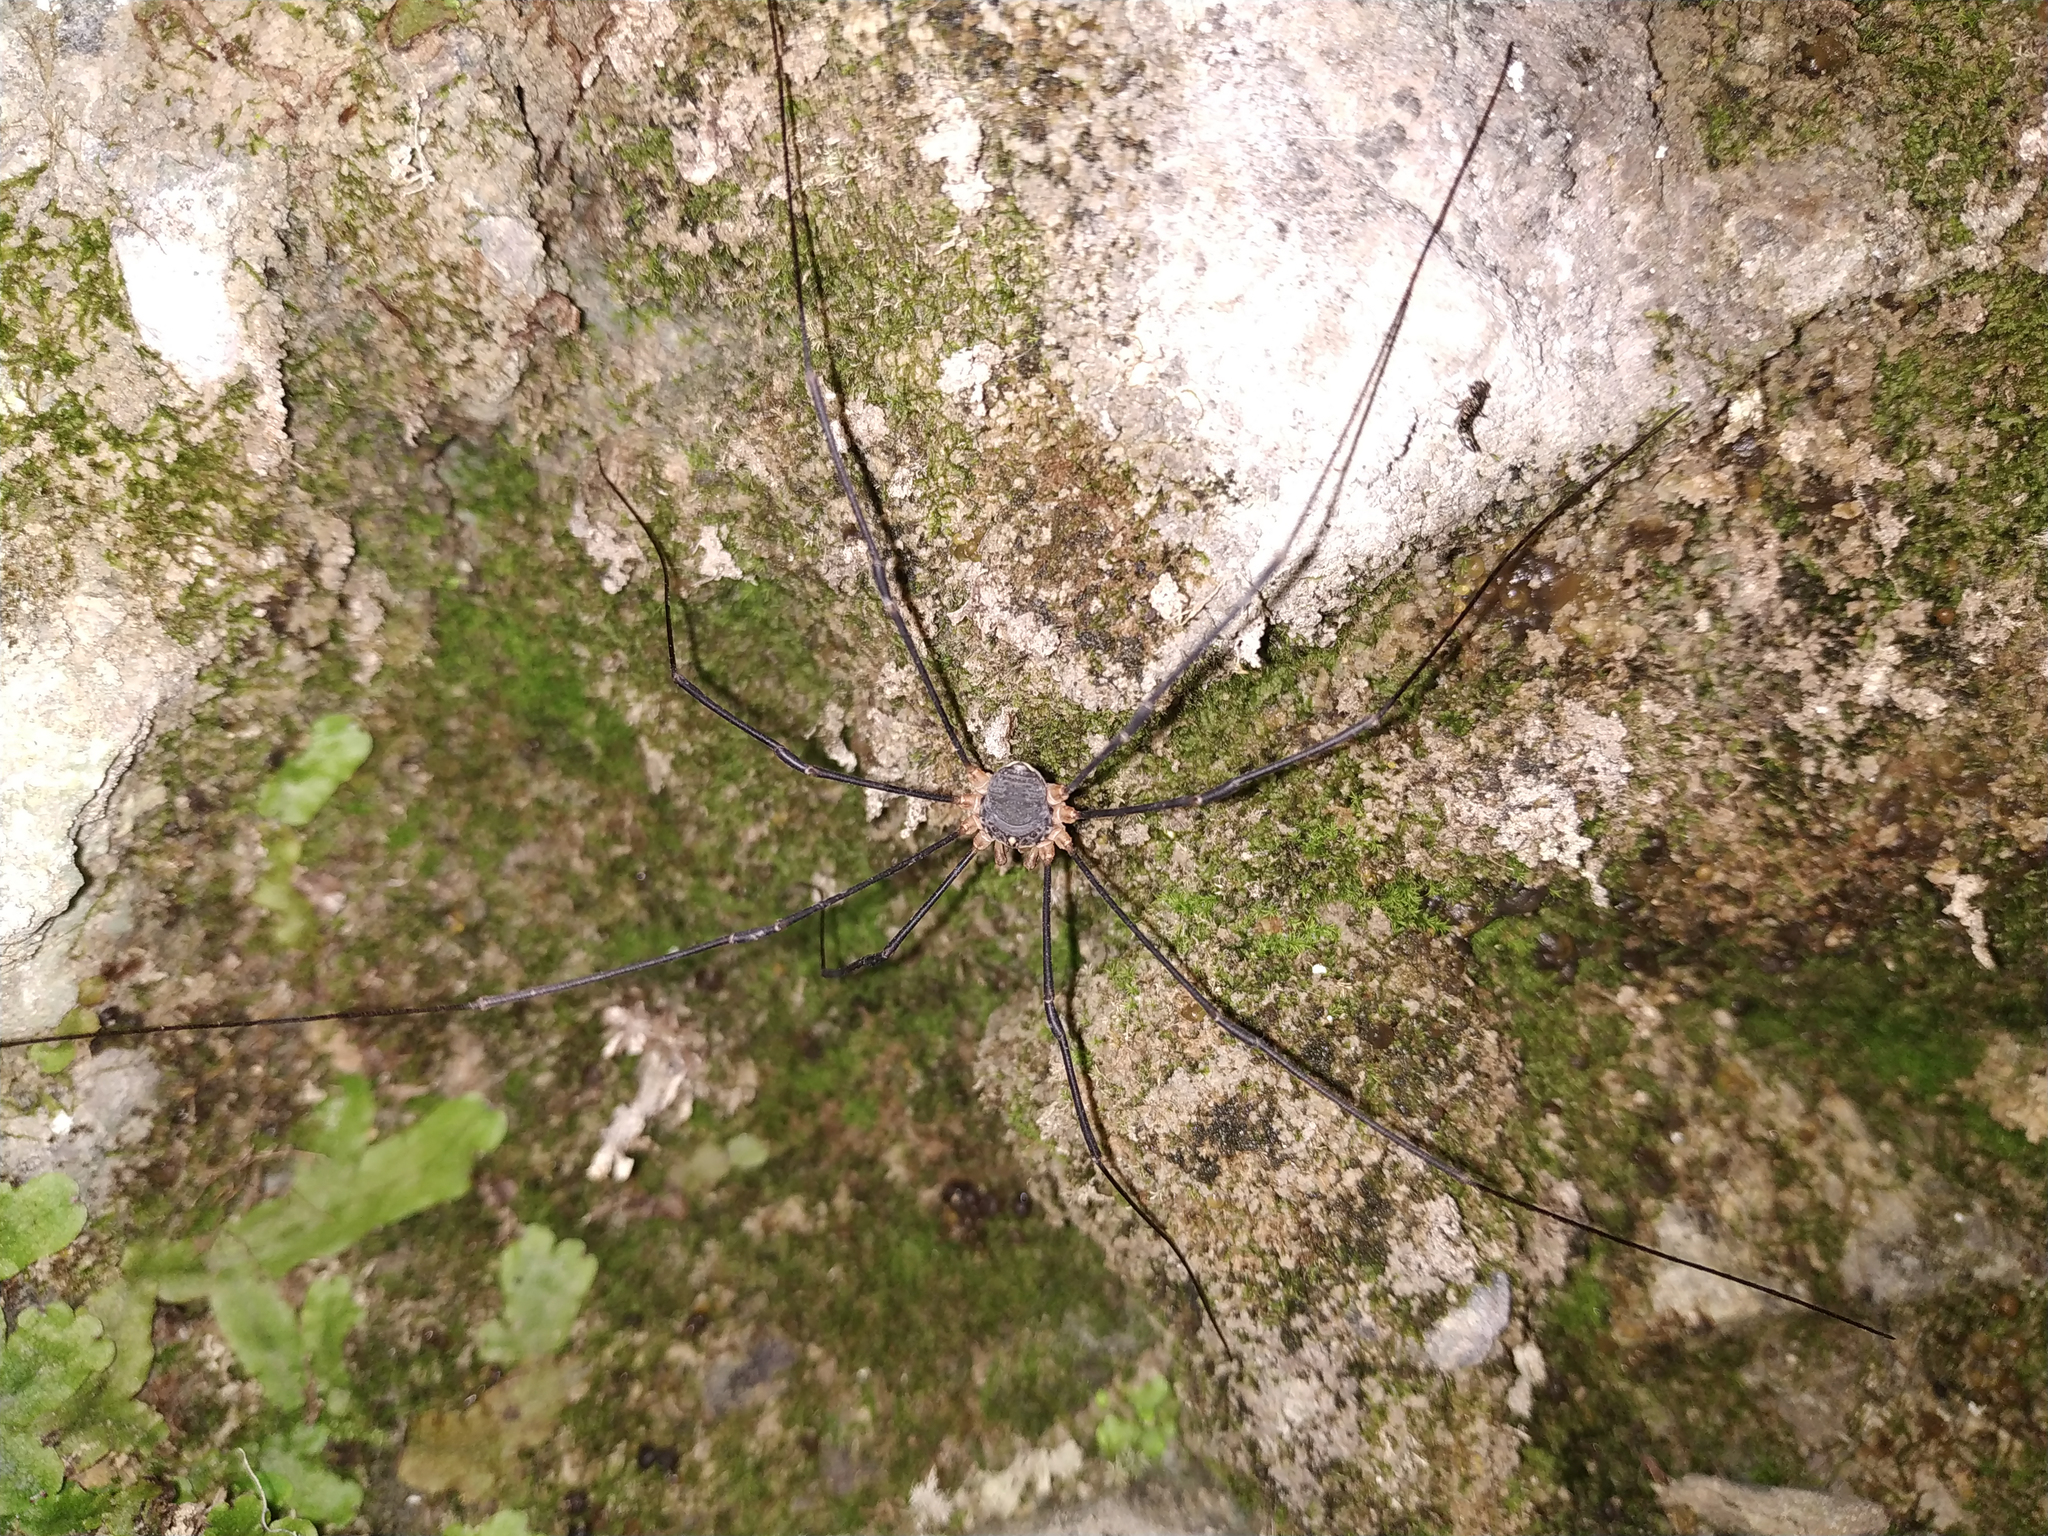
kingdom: Animalia
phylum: Arthropoda
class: Arachnida
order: Opiliones
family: Sclerosomatidae
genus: Gyas
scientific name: Gyas annulatus
